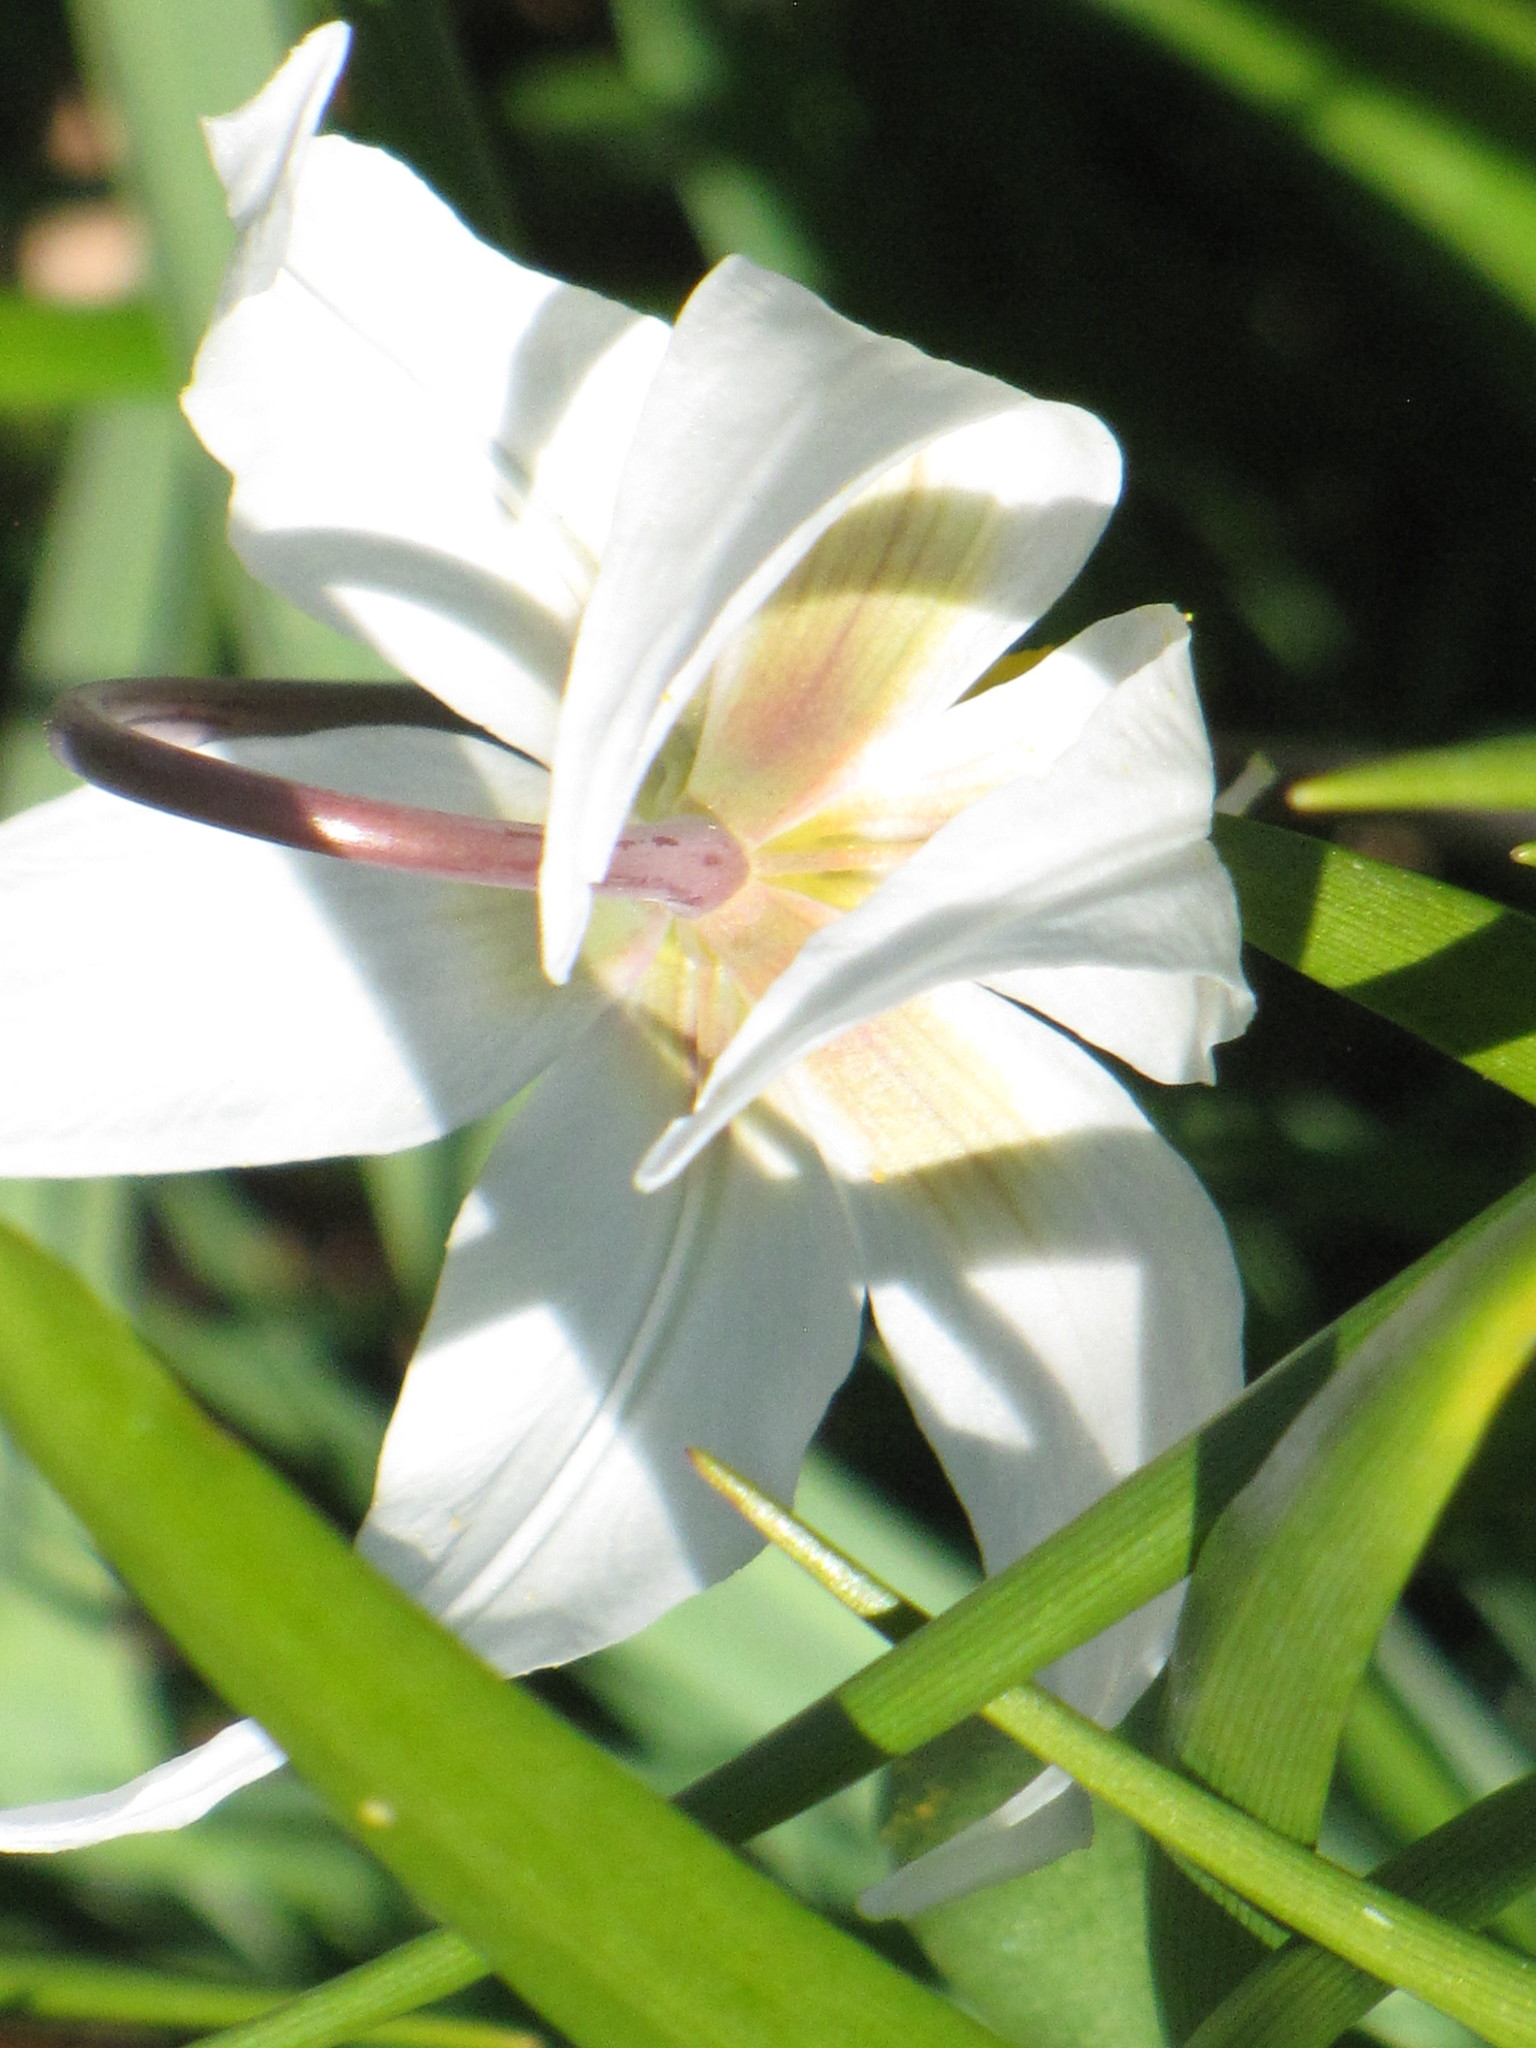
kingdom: Plantae
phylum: Tracheophyta
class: Liliopsida
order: Liliales
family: Liliaceae
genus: Erythronium
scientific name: Erythronium oregonum
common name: Giant adder's-tongue
